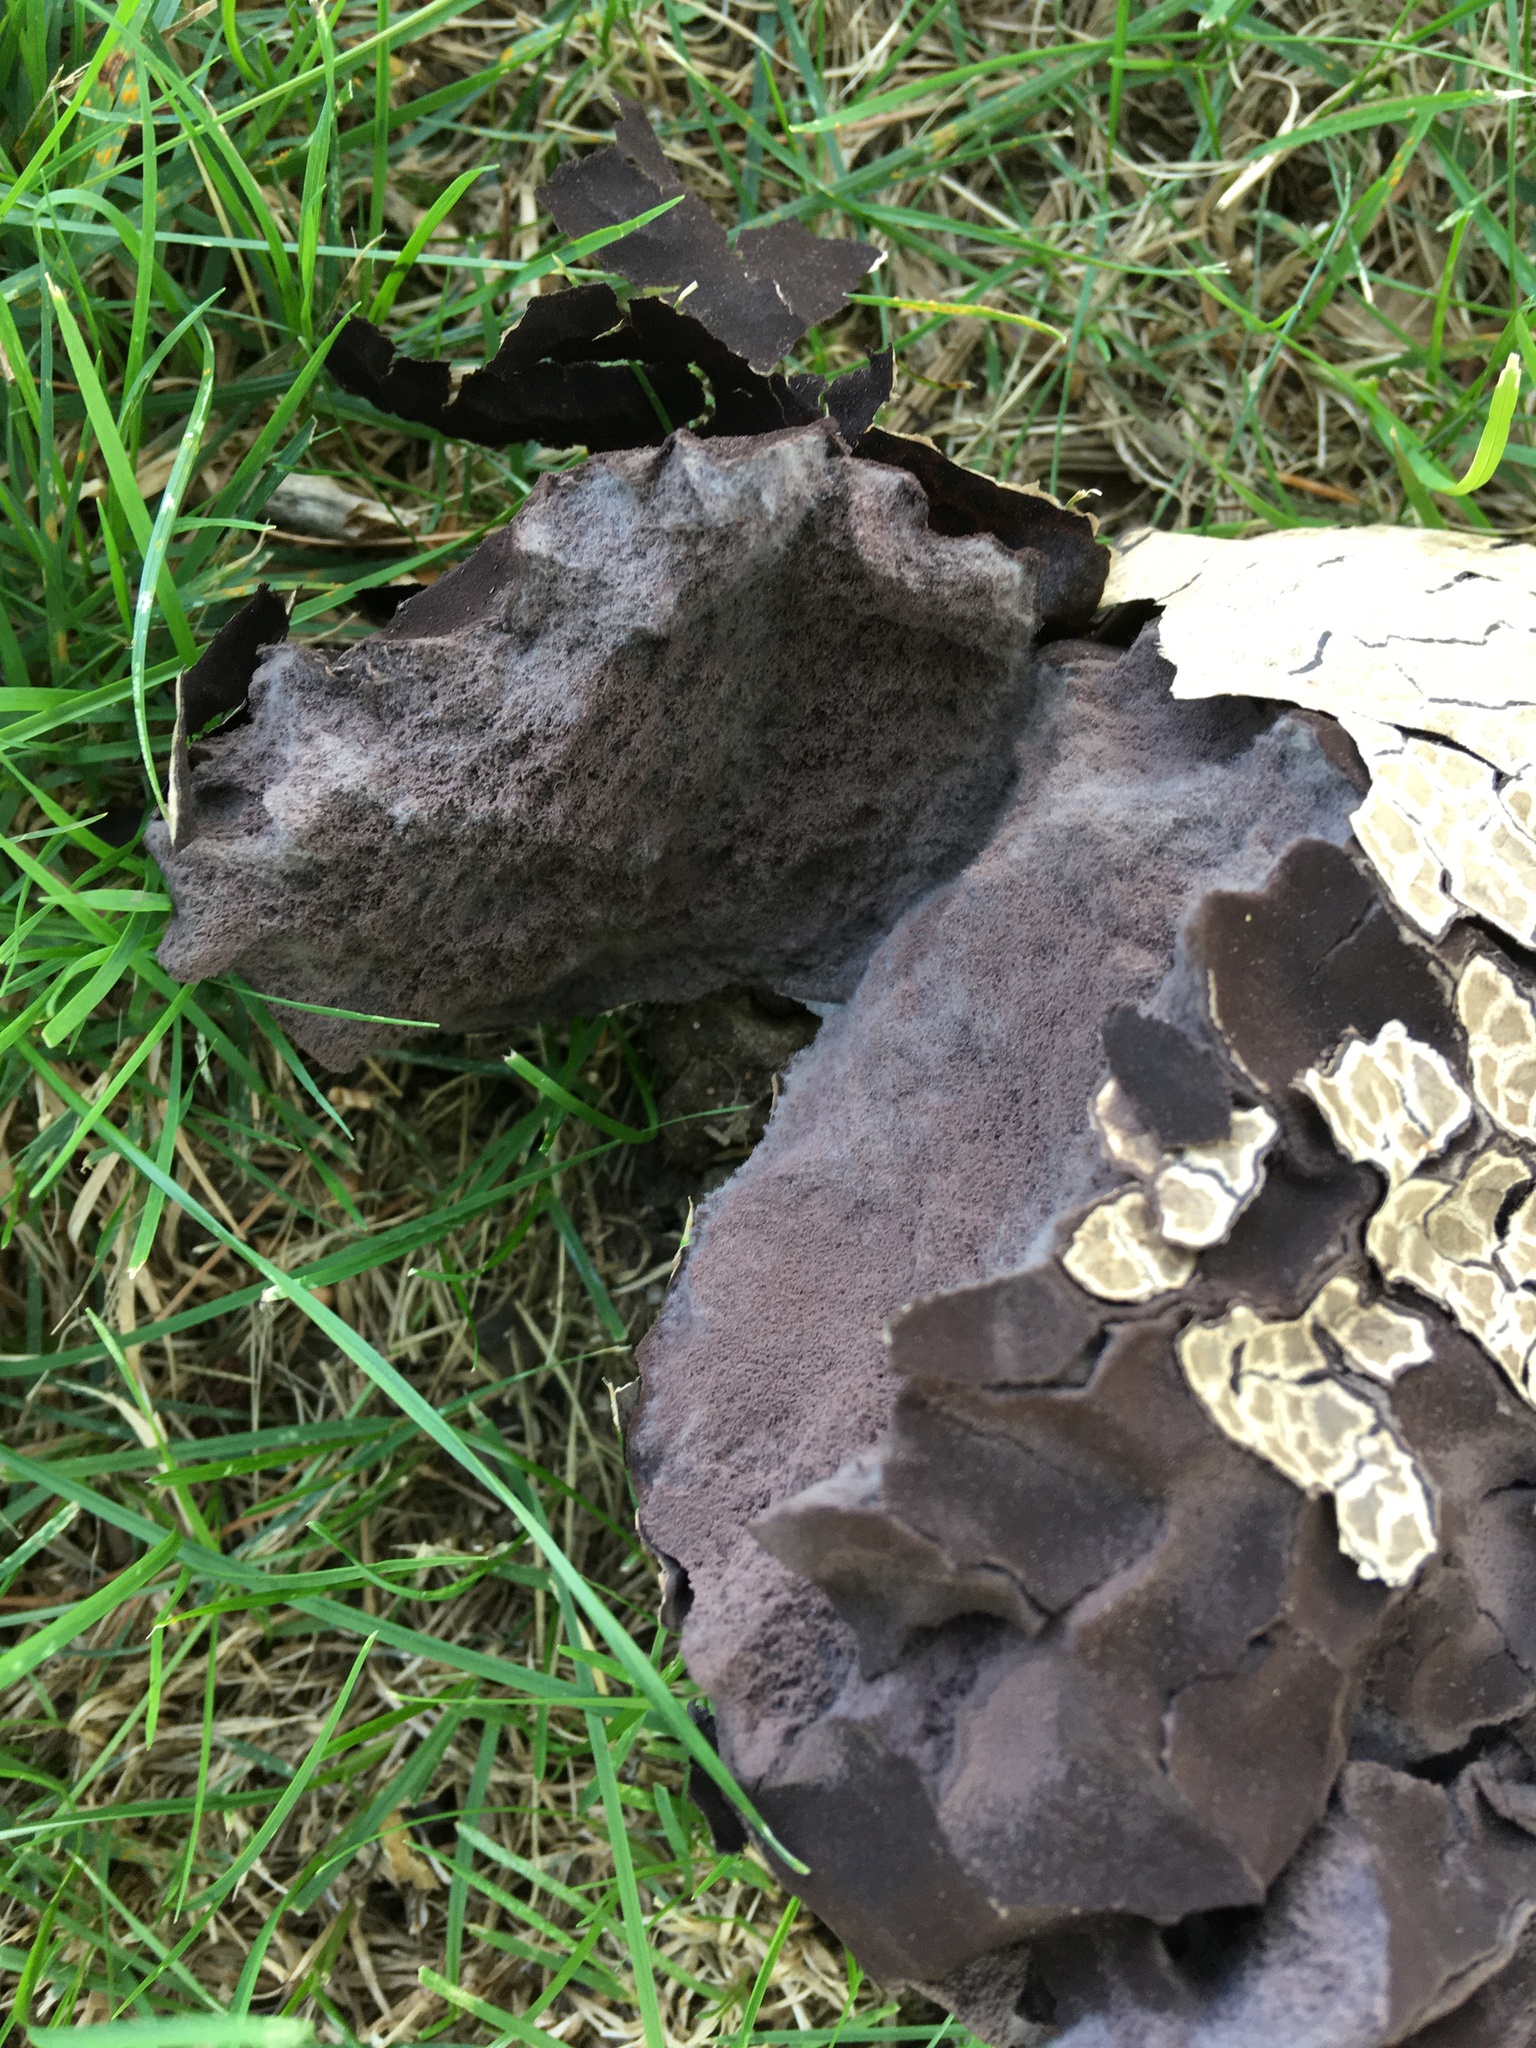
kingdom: Fungi
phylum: Basidiomycota
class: Agaricomycetes
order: Agaricales
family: Lycoperdaceae
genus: Calvatia
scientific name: Calvatia craniiformis
